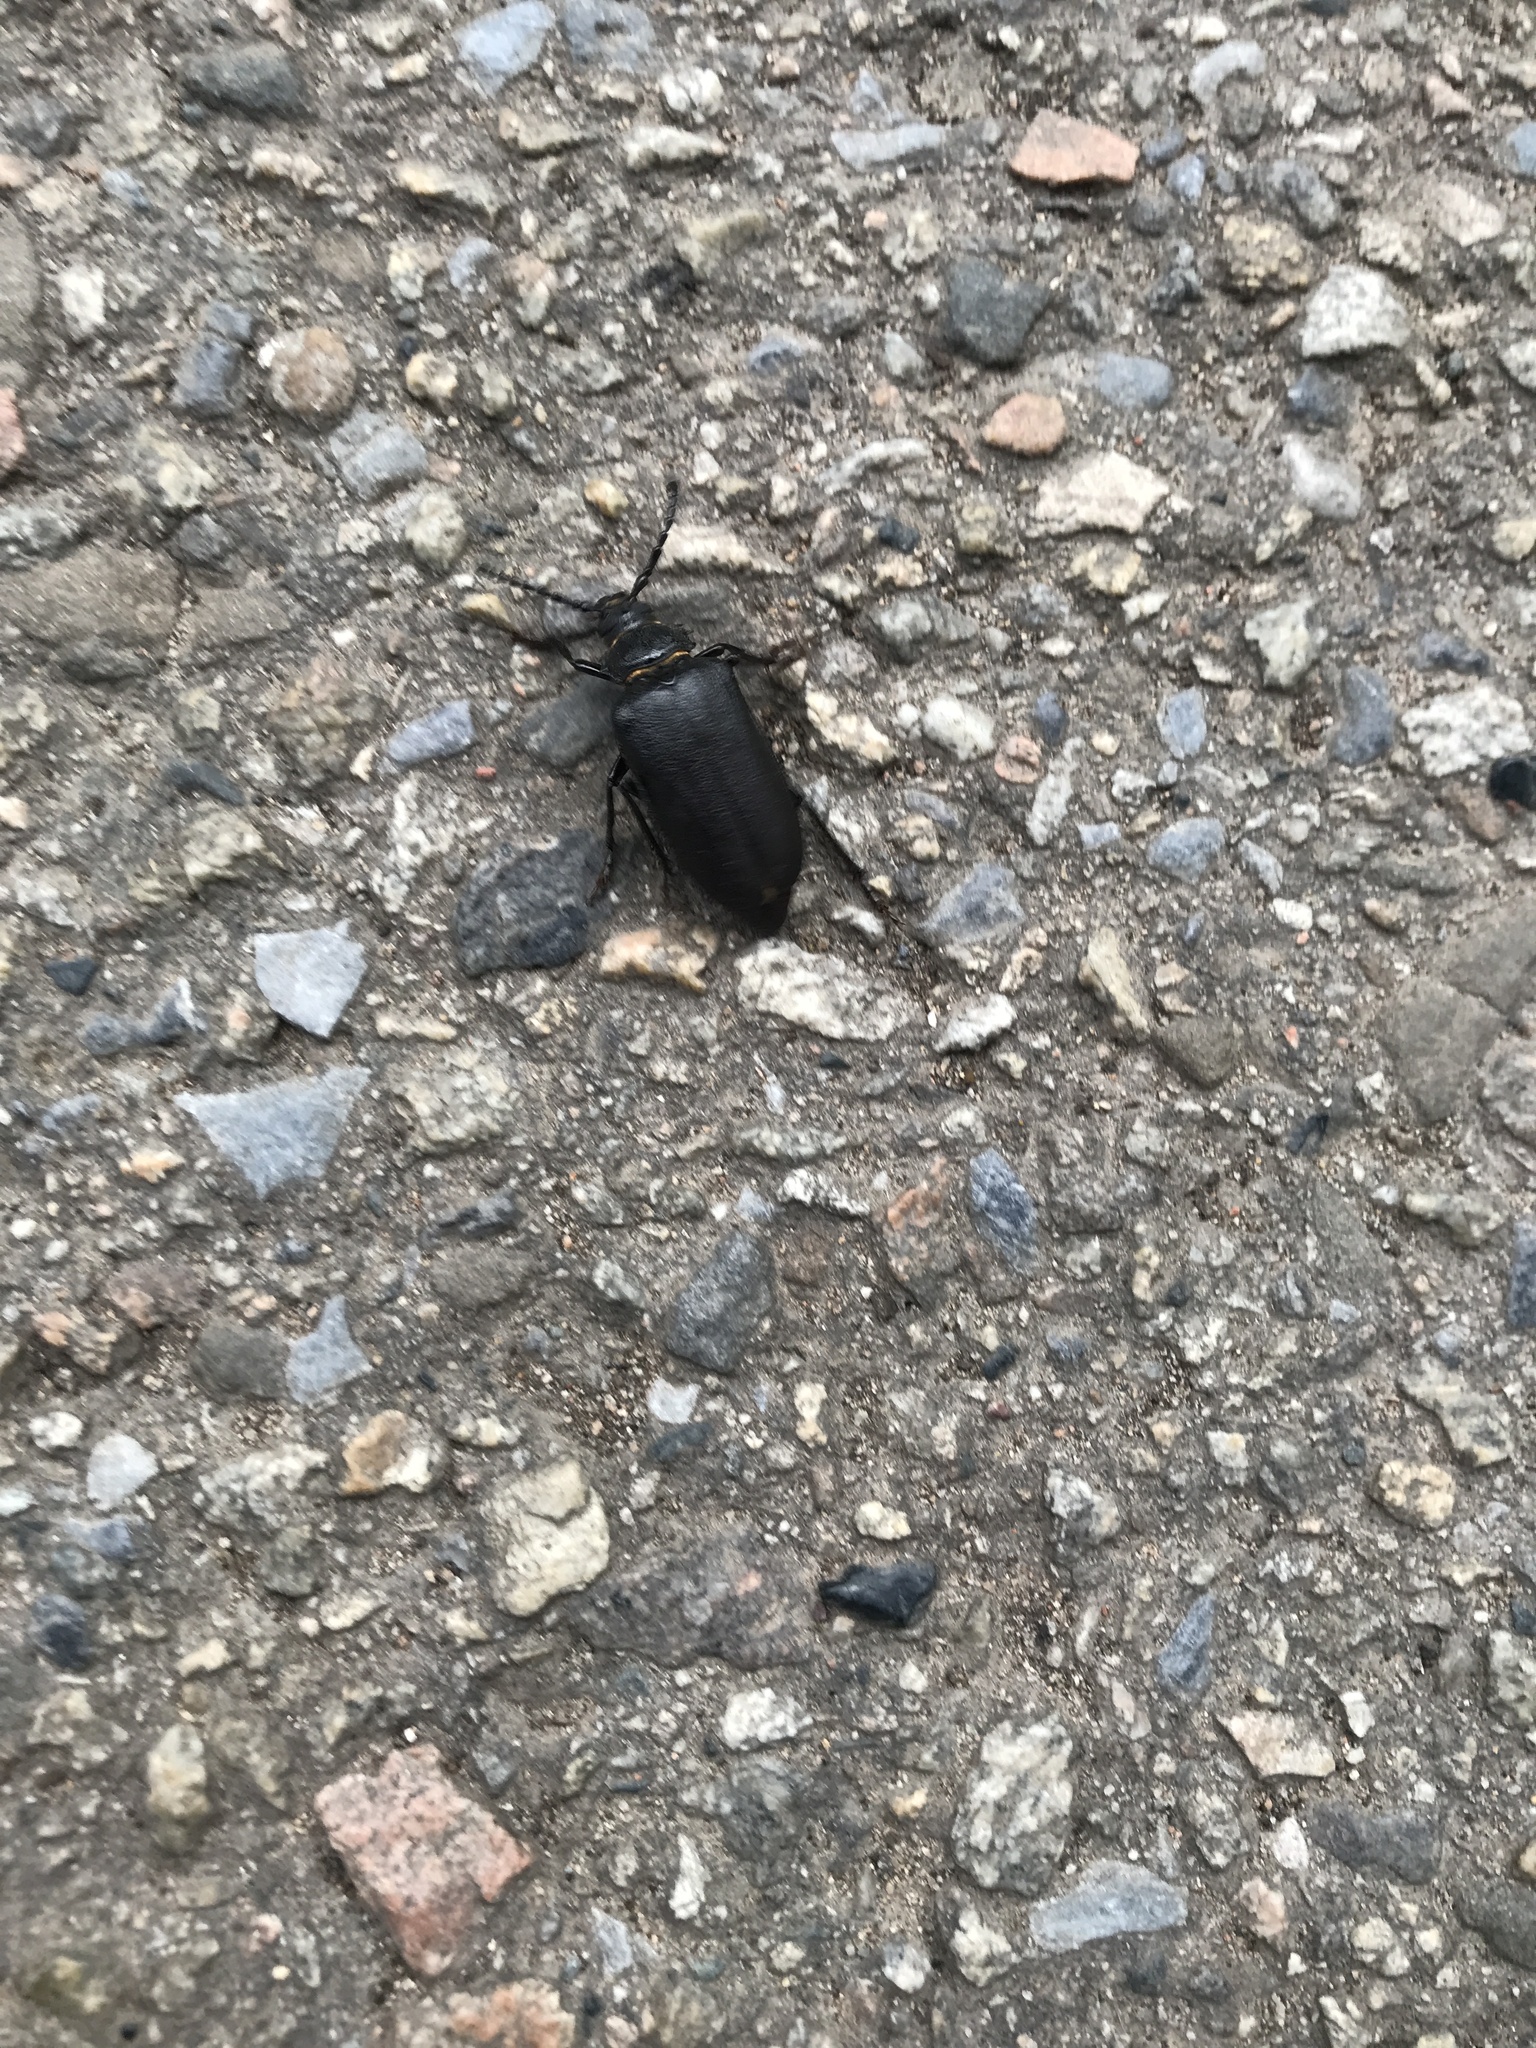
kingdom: Animalia
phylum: Arthropoda
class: Insecta
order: Coleoptera
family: Cerambycidae
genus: Prionus
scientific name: Prionus coriarius
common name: Tanner beetle
